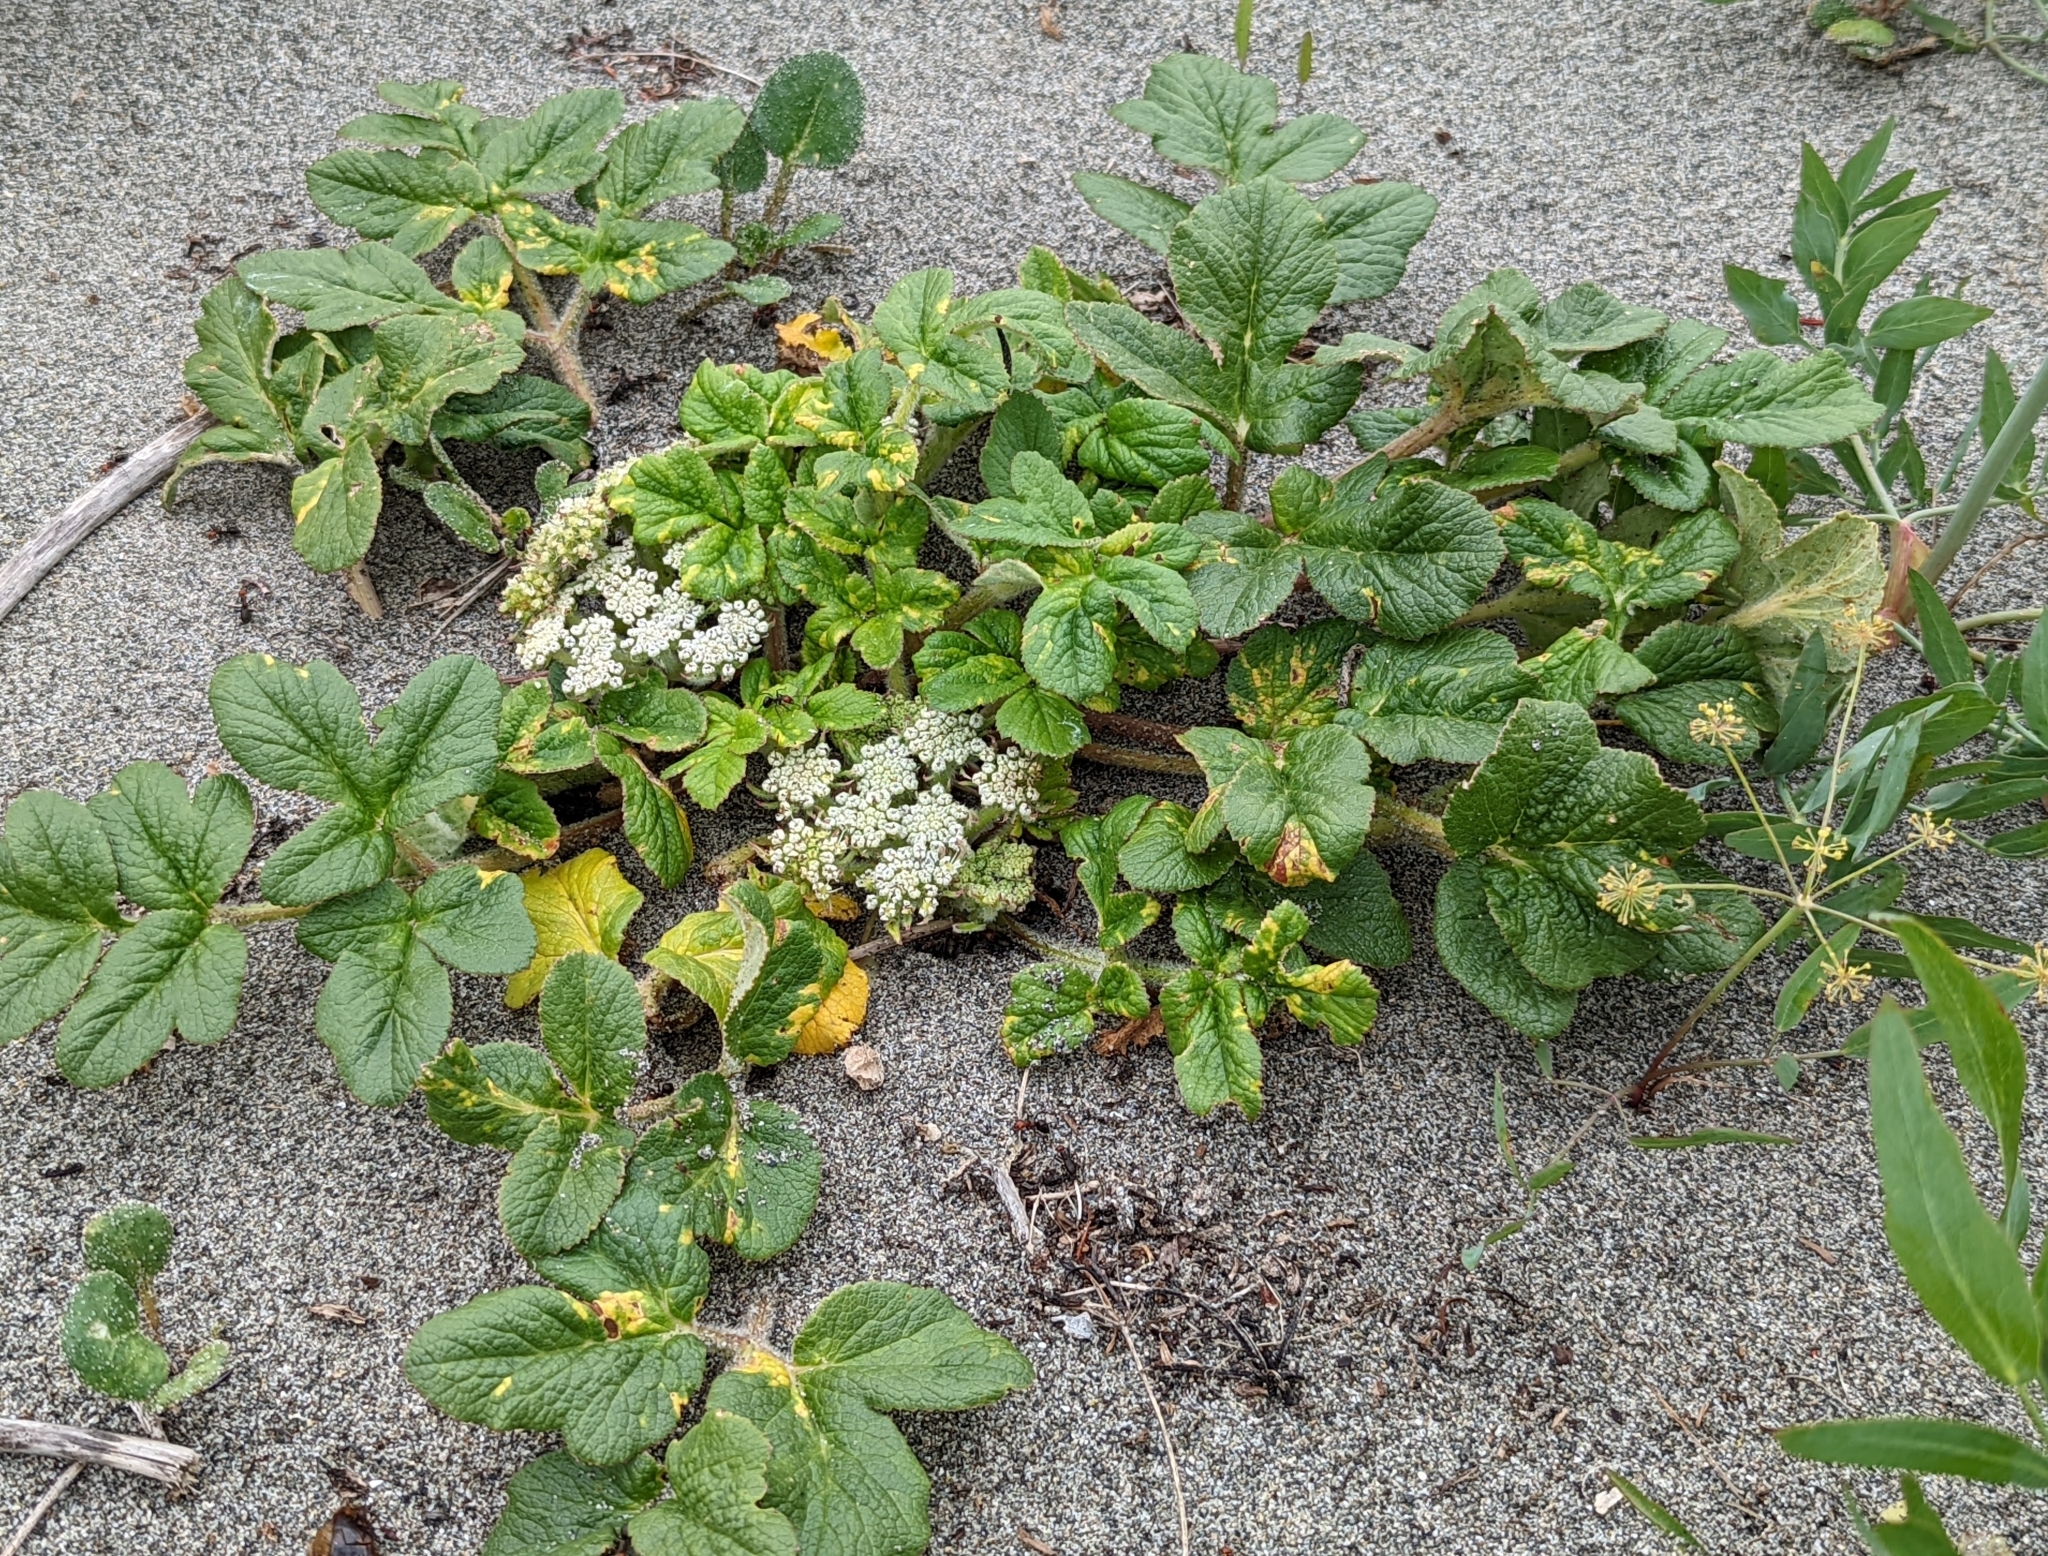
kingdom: Plantae
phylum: Tracheophyta
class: Magnoliopsida
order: Apiales
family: Apiaceae
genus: Angelica
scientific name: Angelica leiocarpa
